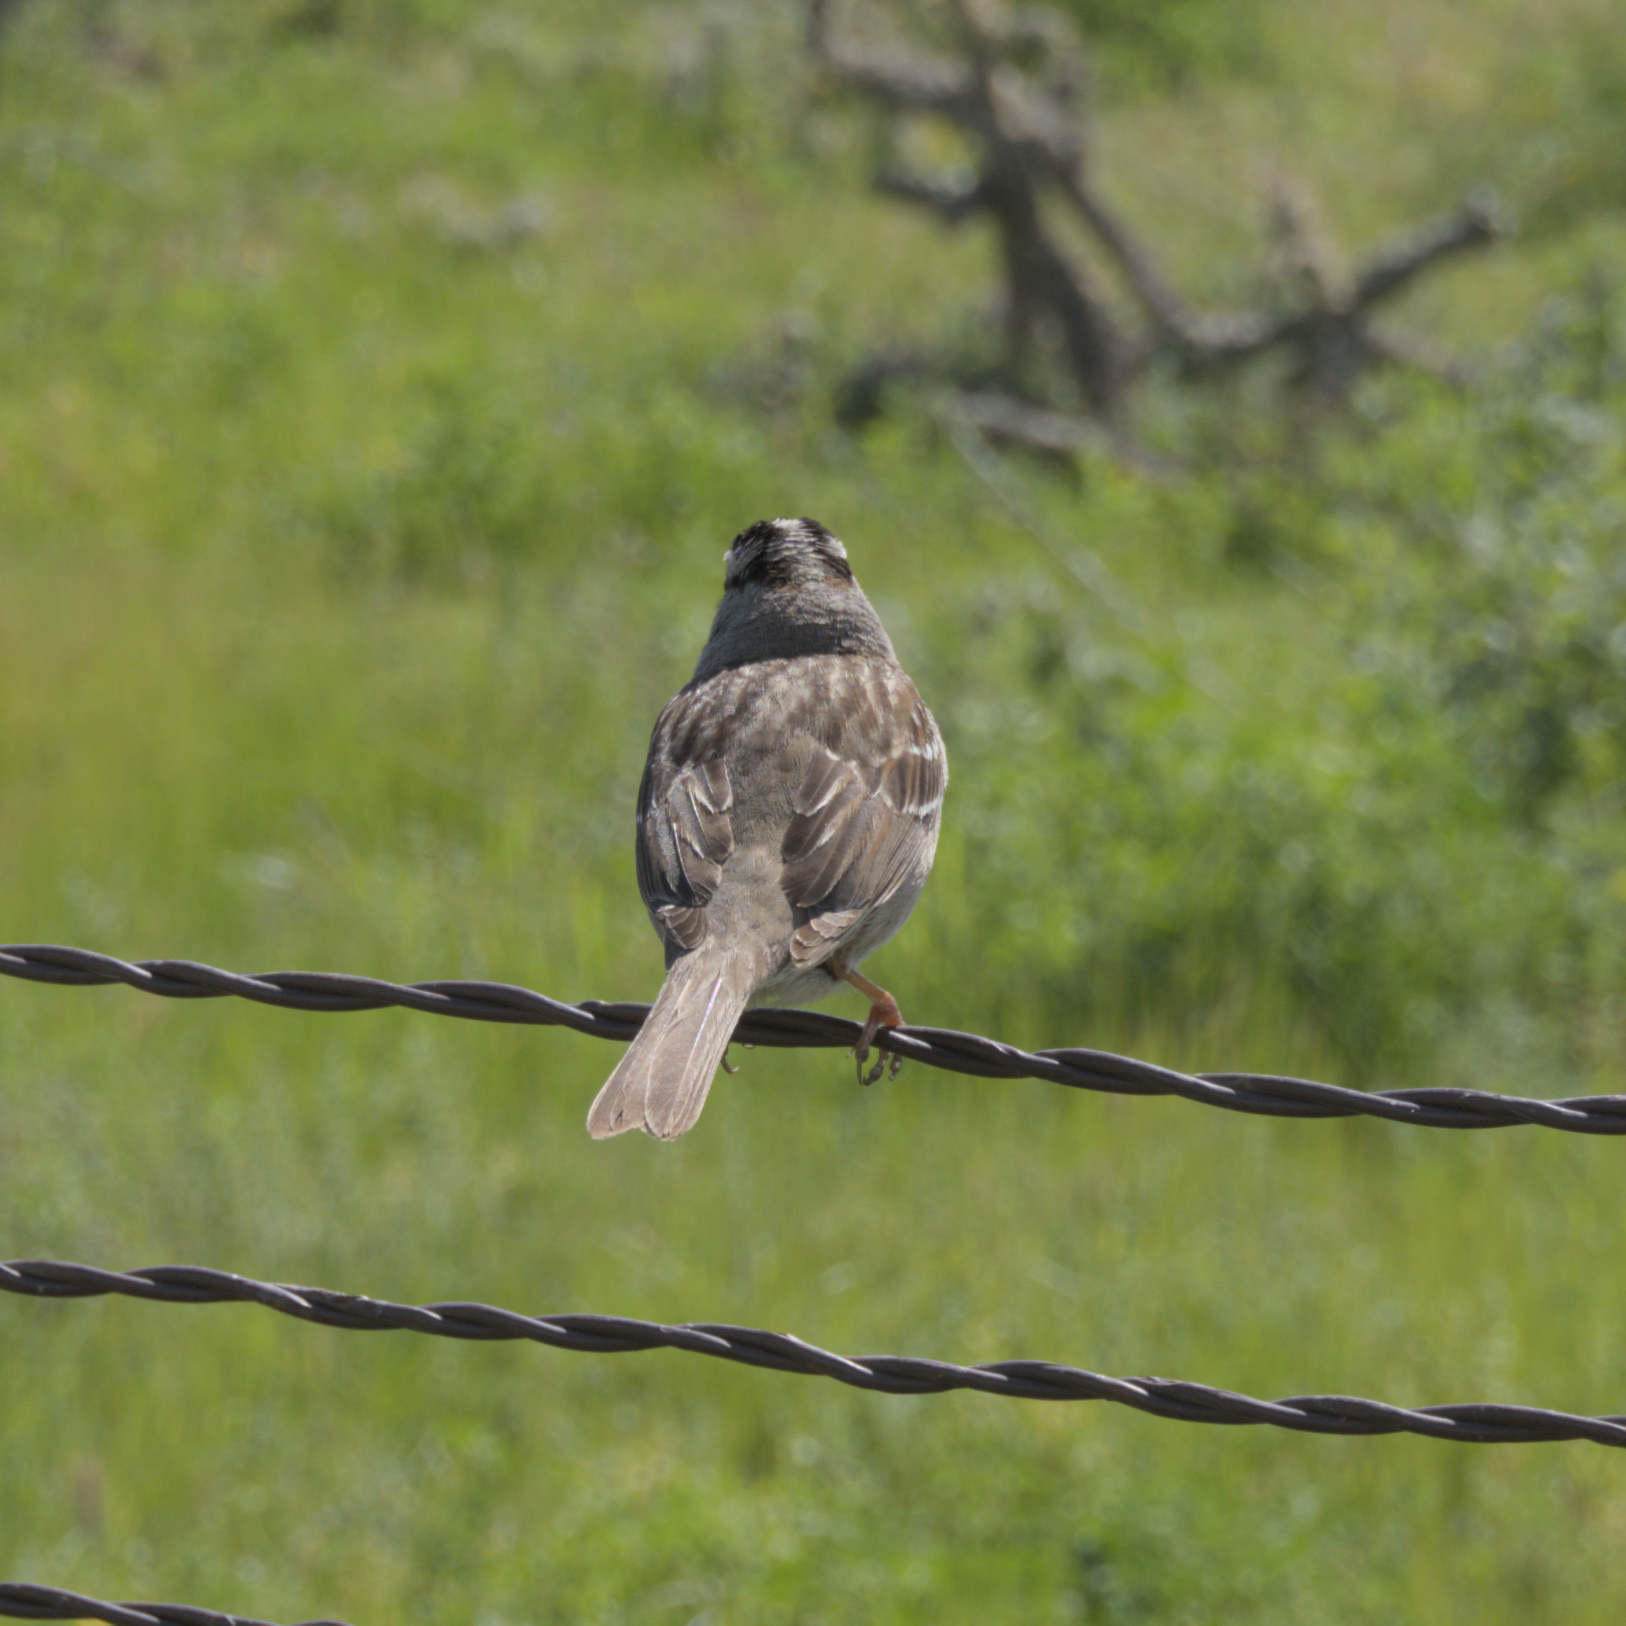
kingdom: Animalia
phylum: Chordata
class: Aves
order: Passeriformes
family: Passerellidae
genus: Zonotrichia
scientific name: Zonotrichia leucophrys
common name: White-crowned sparrow
